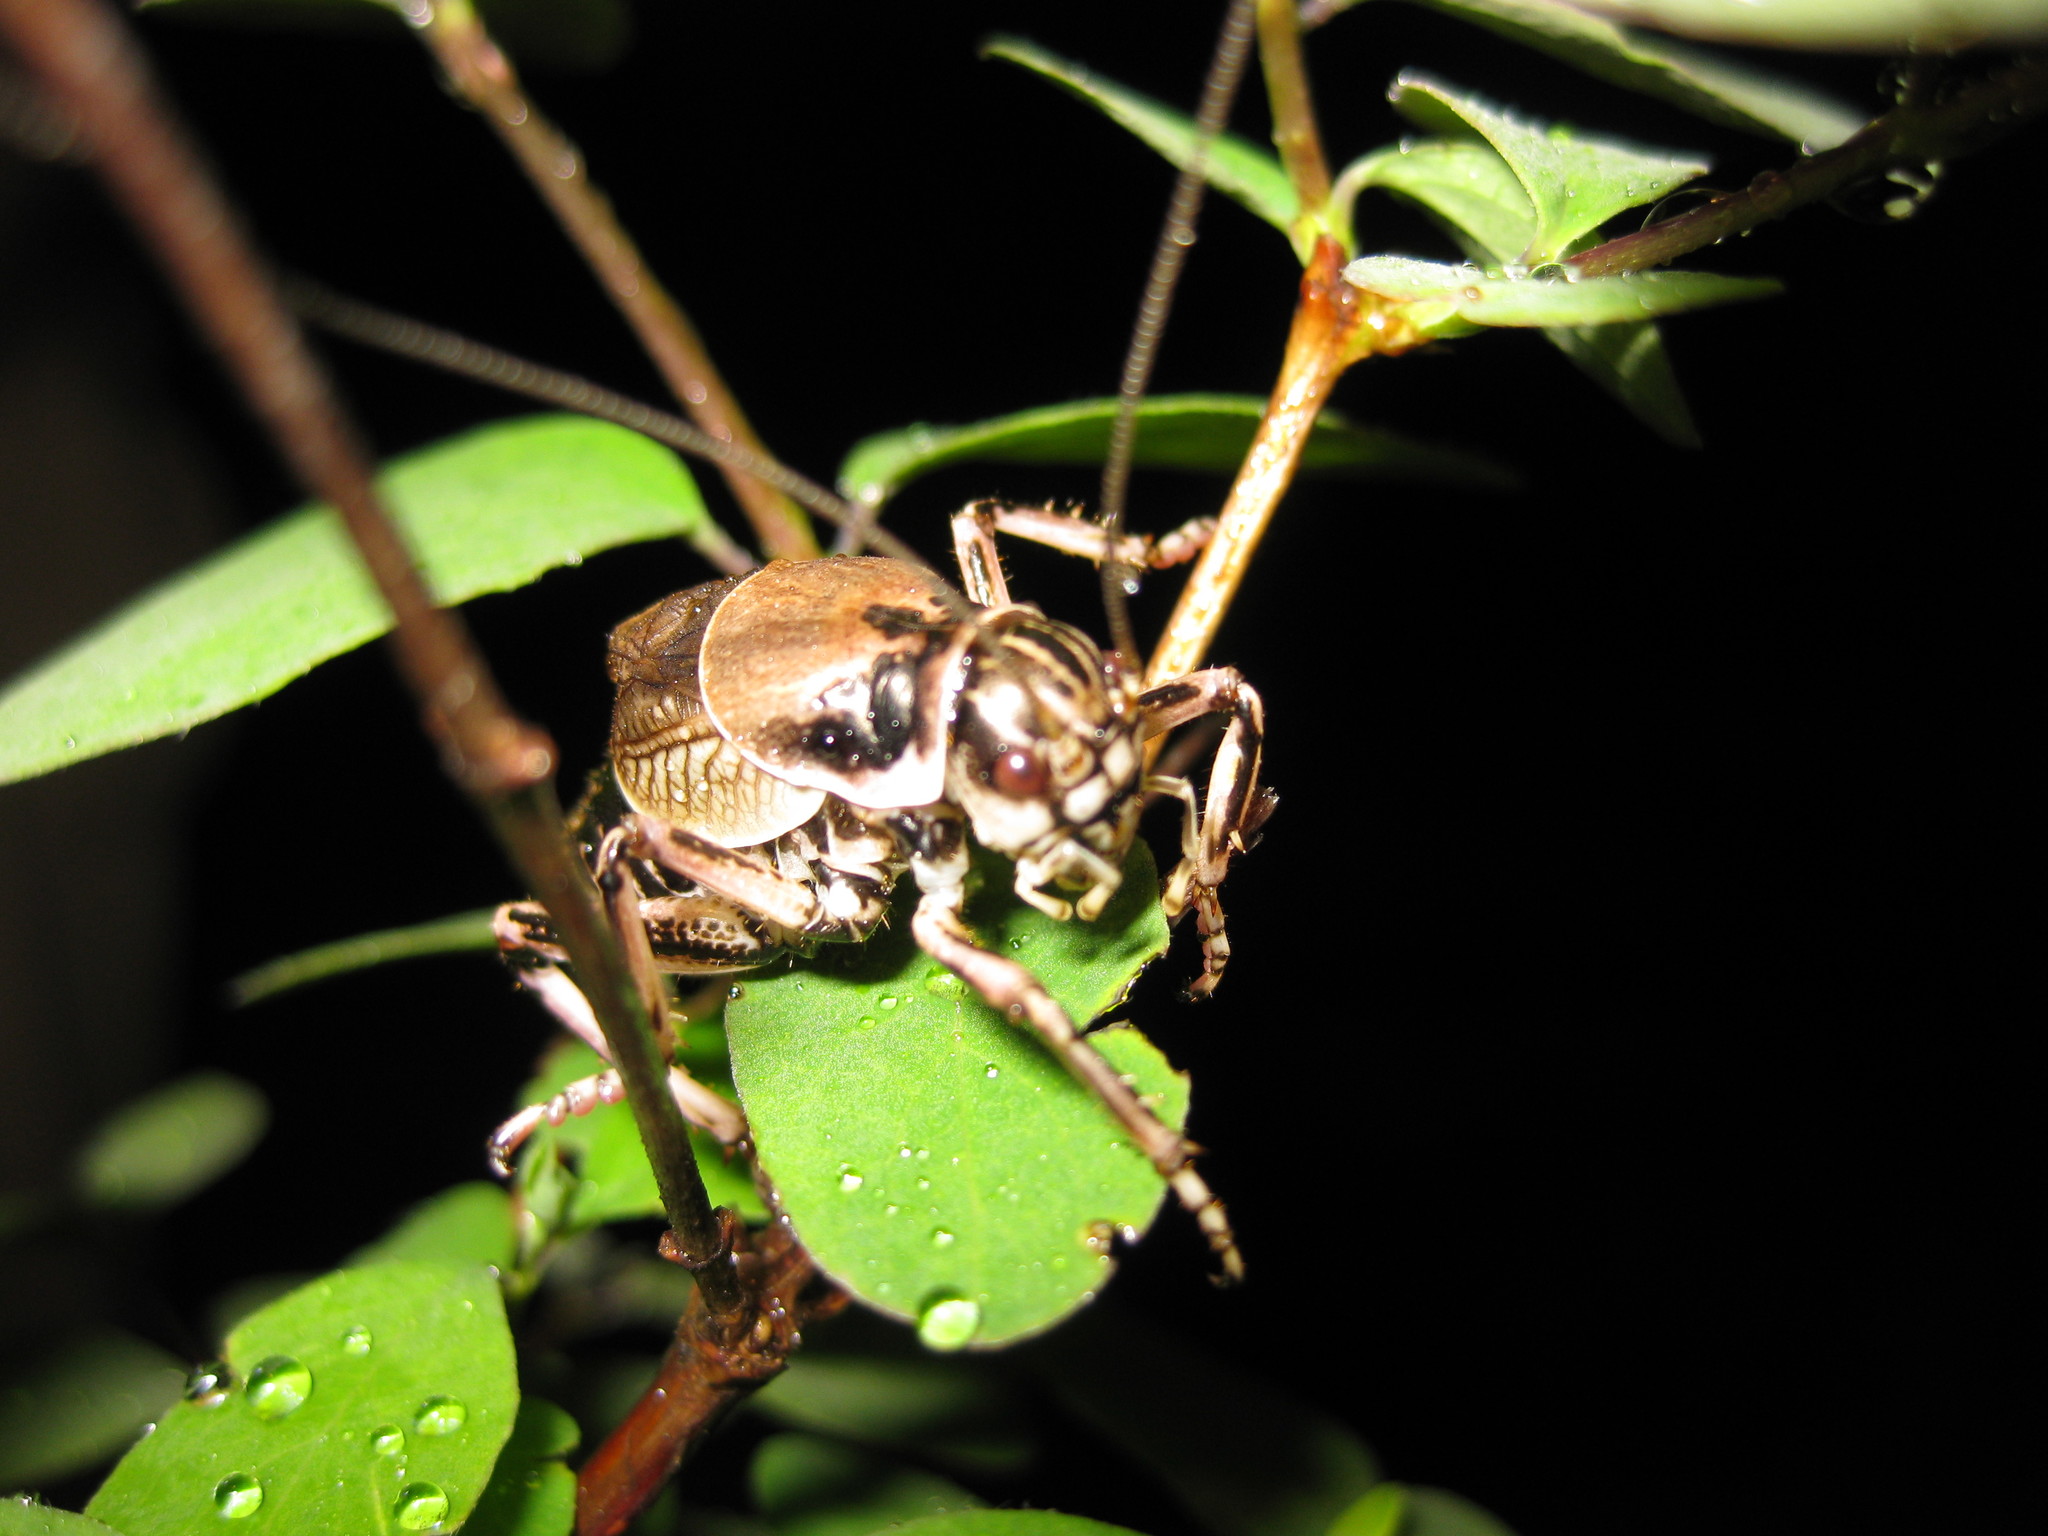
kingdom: Animalia
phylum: Arthropoda
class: Insecta
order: Orthoptera
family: Prophalangopsidae
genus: Cyphoderris
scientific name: Cyphoderris buckelli
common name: Buckell’s grig
